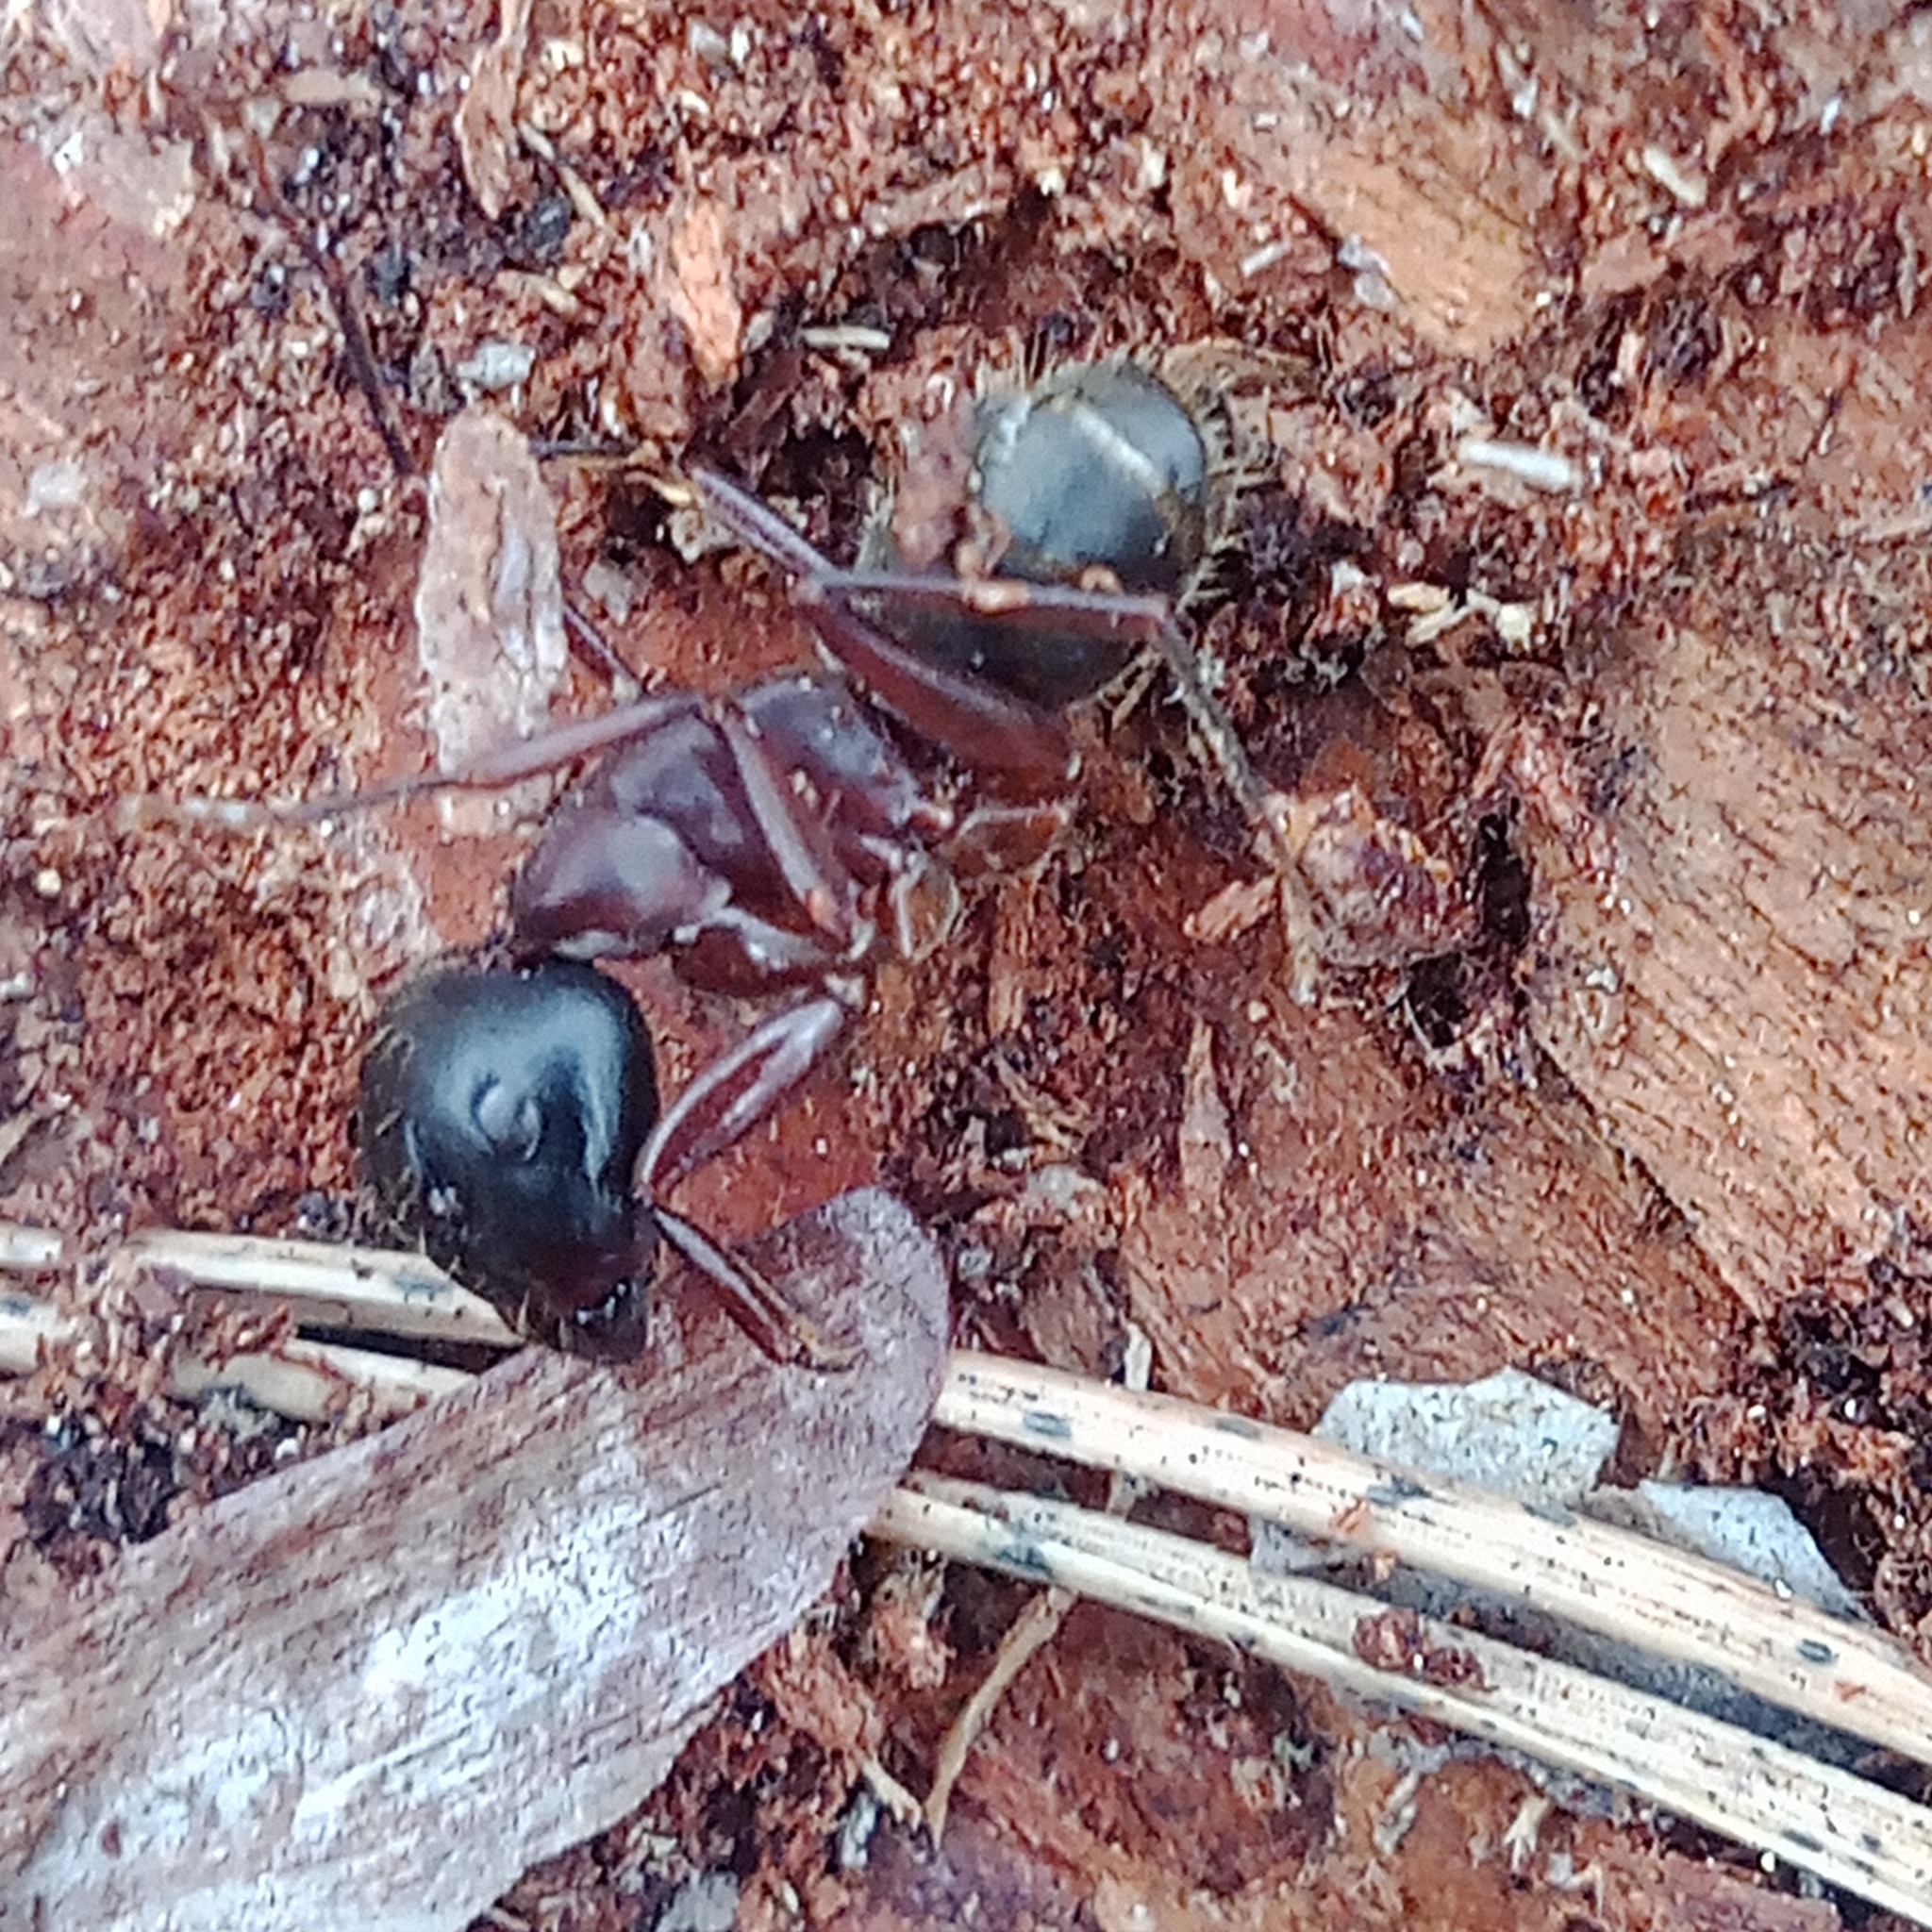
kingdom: Animalia
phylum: Arthropoda
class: Insecta
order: Hymenoptera
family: Formicidae
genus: Camponotus
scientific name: Camponotus herculeanus
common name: Hercules ant
